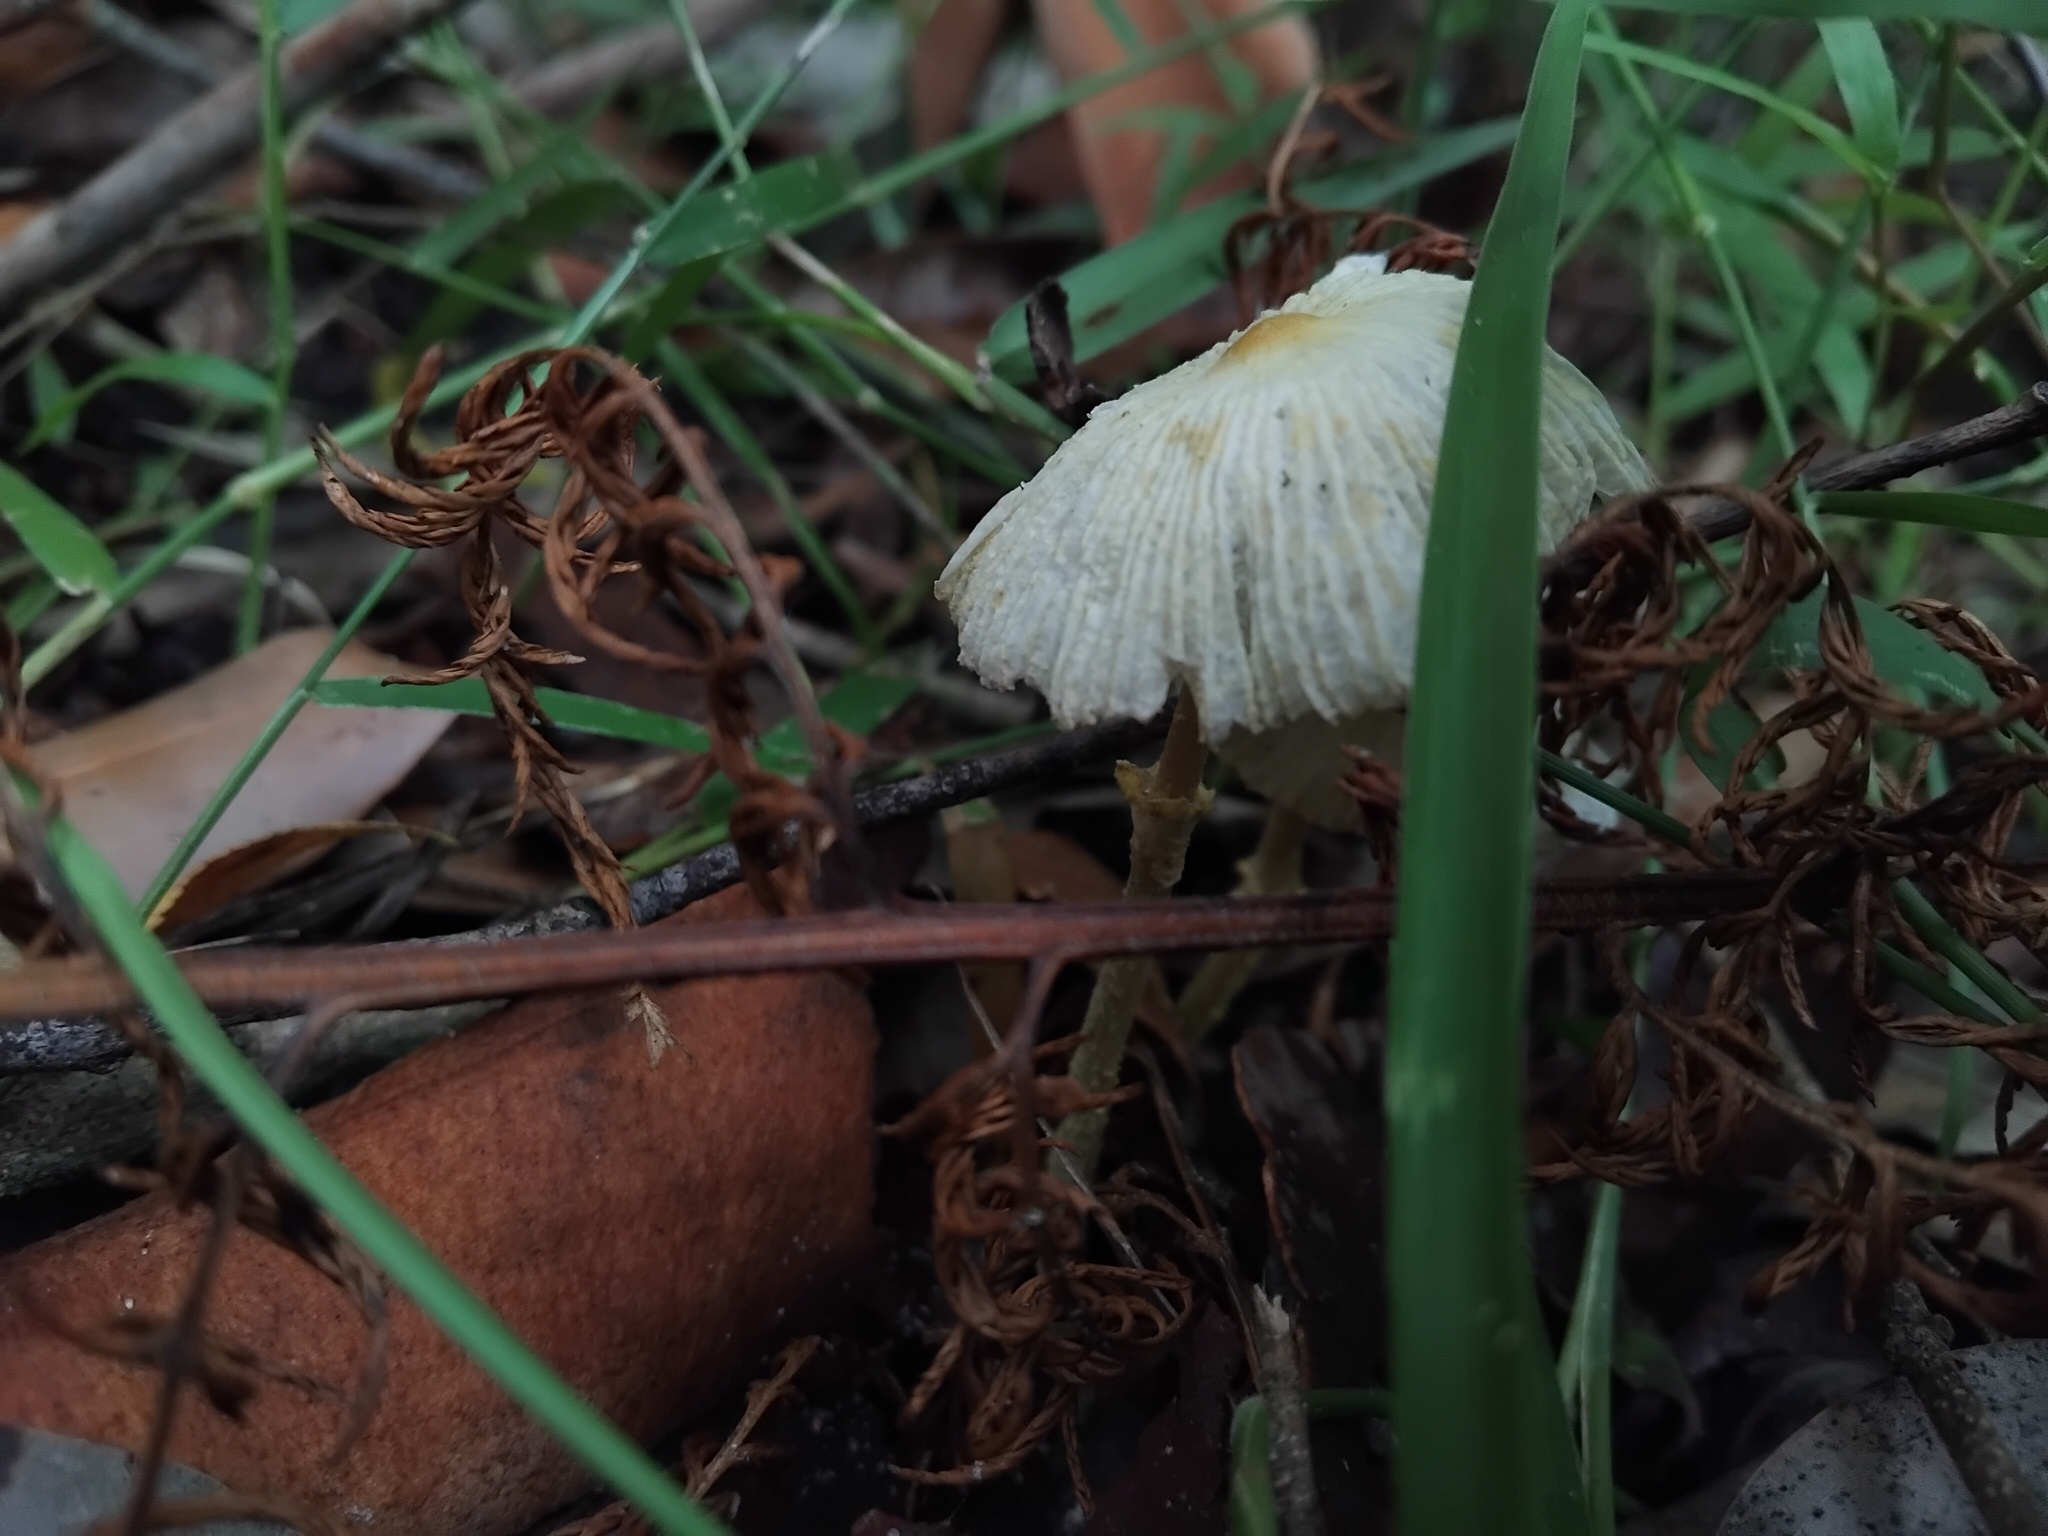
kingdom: Fungi
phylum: Basidiomycota
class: Agaricomycetes
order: Agaricales
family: Agaricaceae
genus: Leucocoprinus
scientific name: Leucocoprinus fragilissimus
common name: Fragile dapperling
